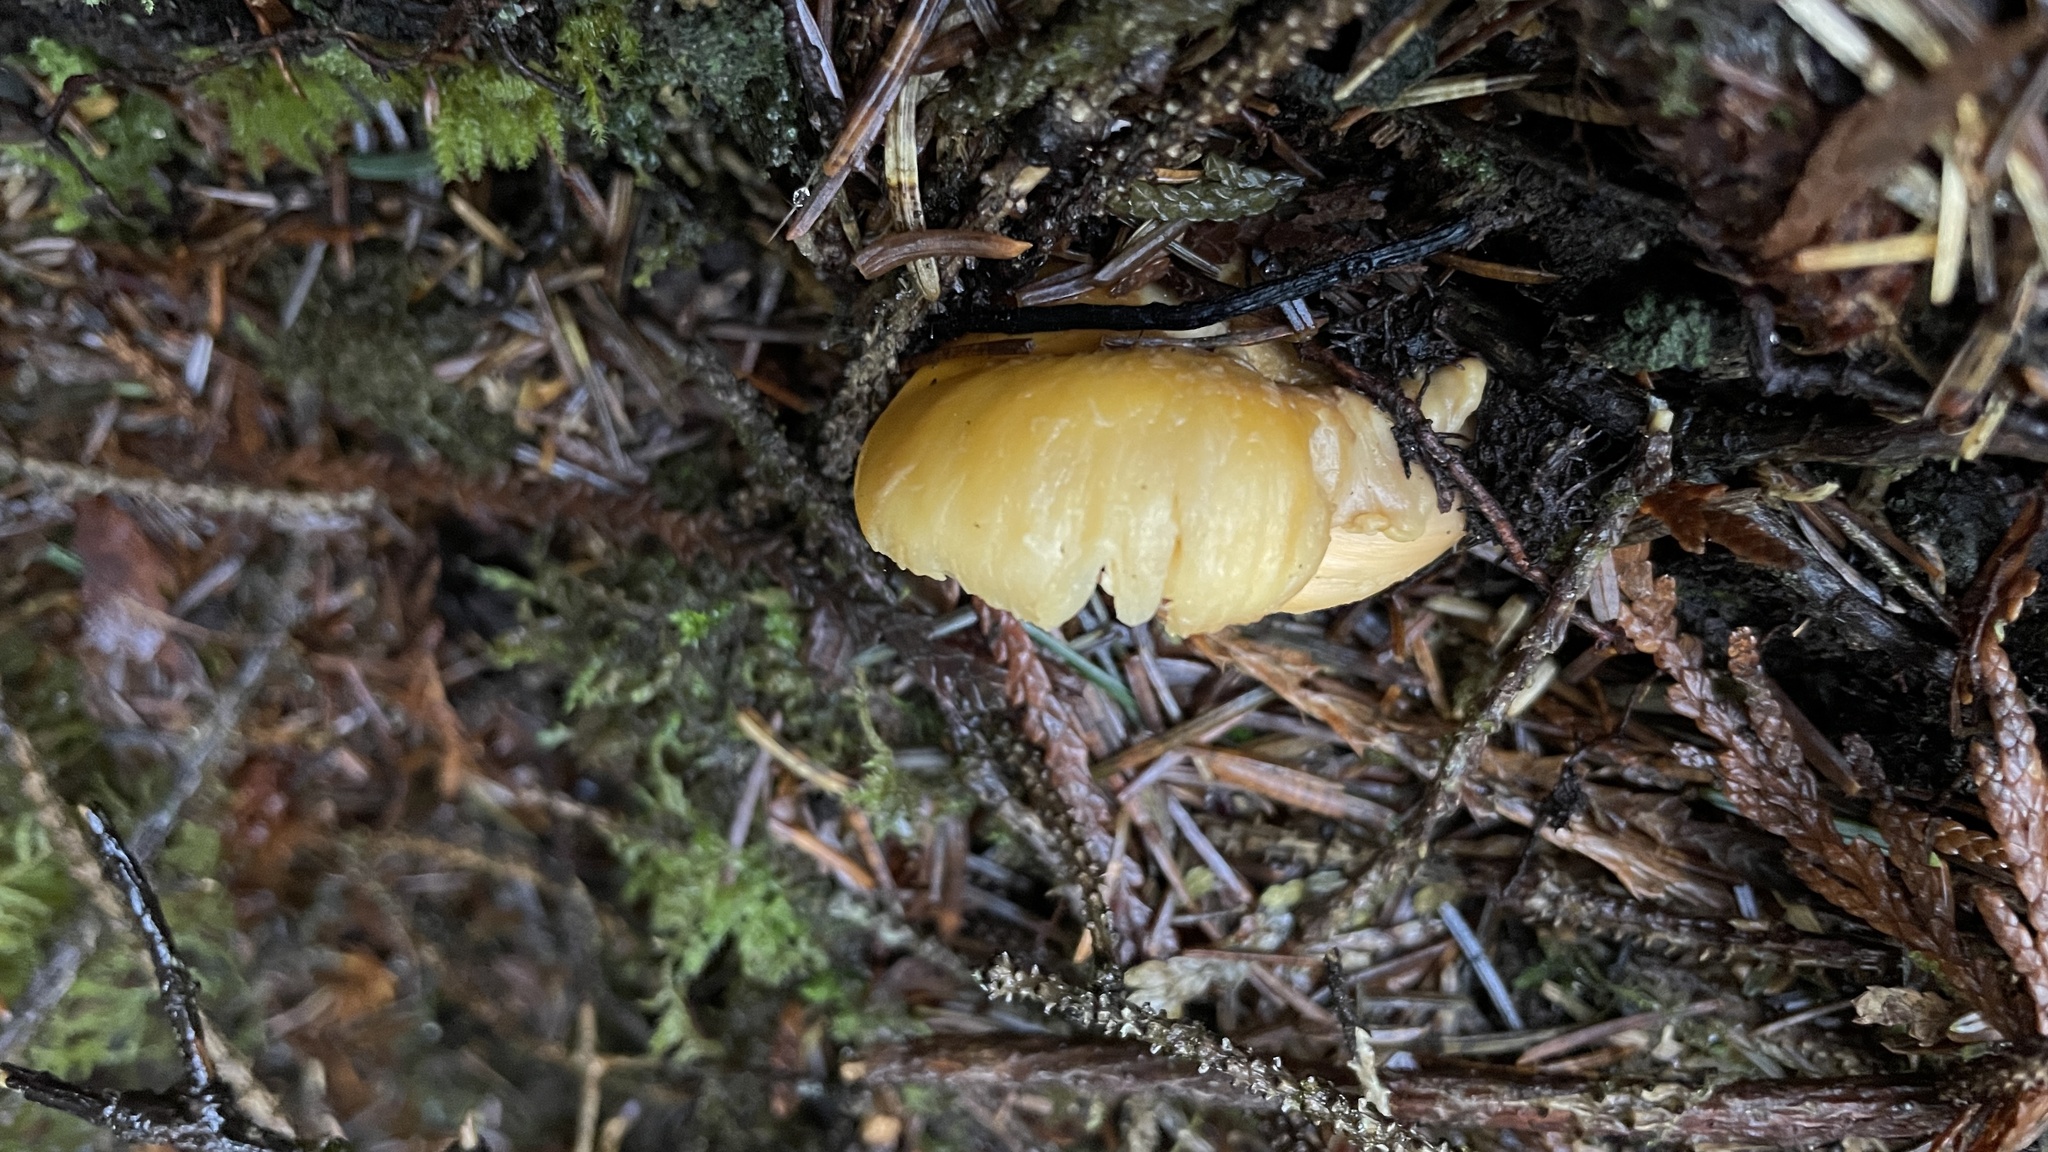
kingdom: Fungi
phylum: Basidiomycota
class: Agaricomycetes
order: Cantharellales
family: Hydnaceae
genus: Cantharellus
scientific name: Cantharellus formosus
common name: Pacific golden chanterelle
